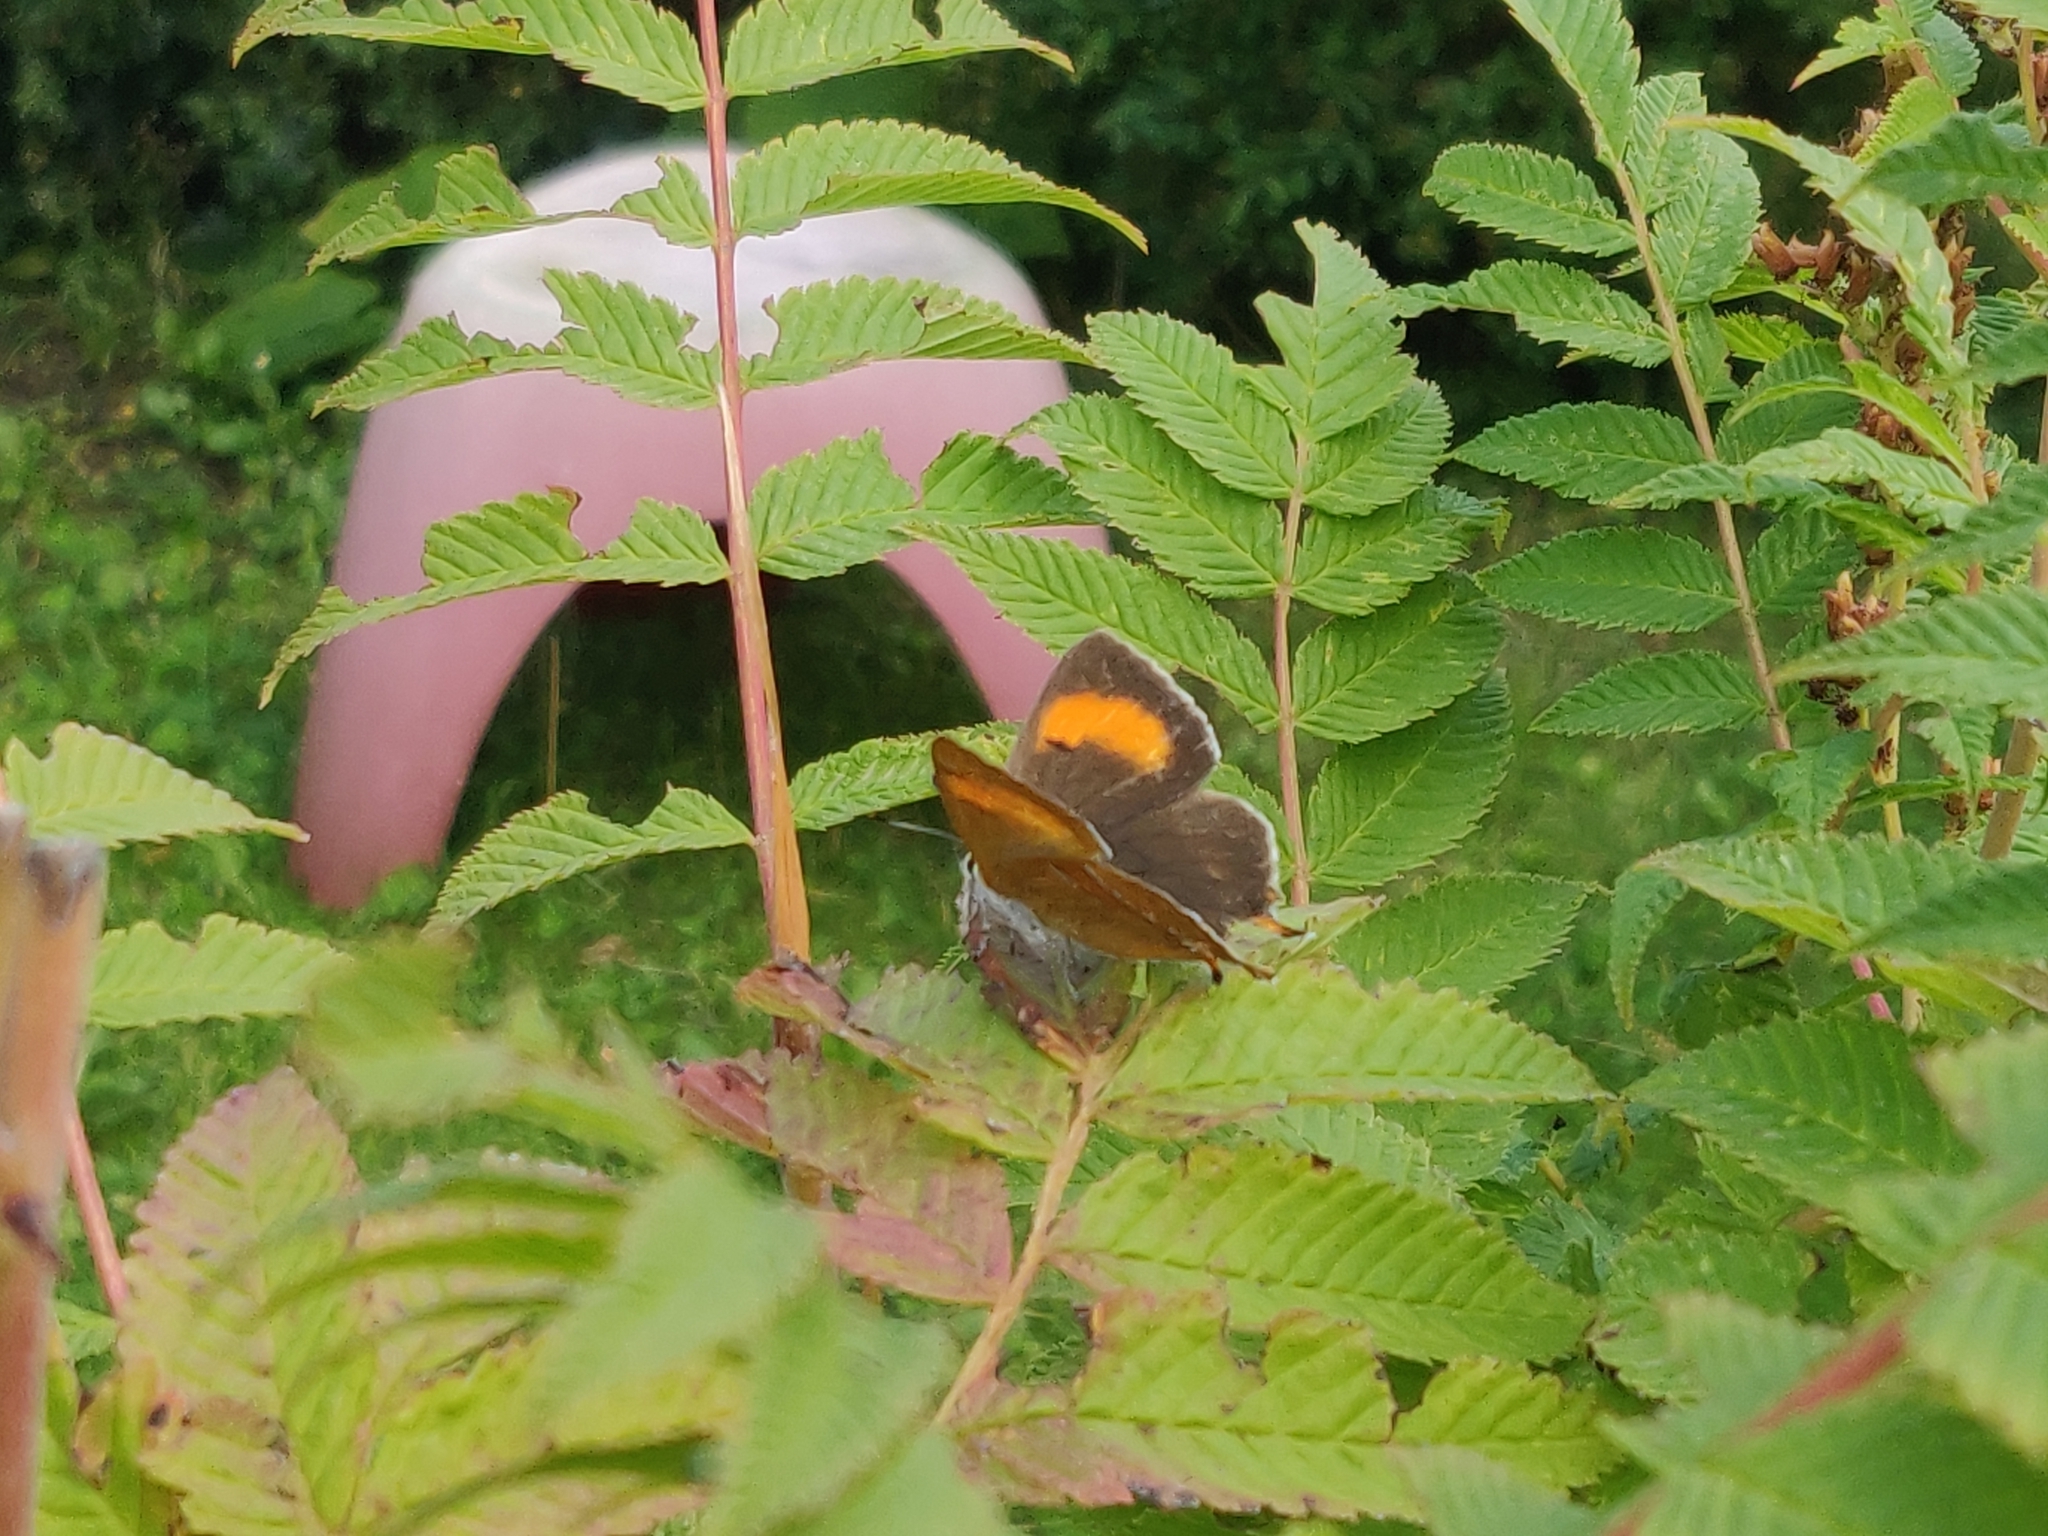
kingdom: Animalia
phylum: Arthropoda
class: Insecta
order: Lepidoptera
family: Lycaenidae
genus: Thecla
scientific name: Thecla betulae
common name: Brown hairstreak
